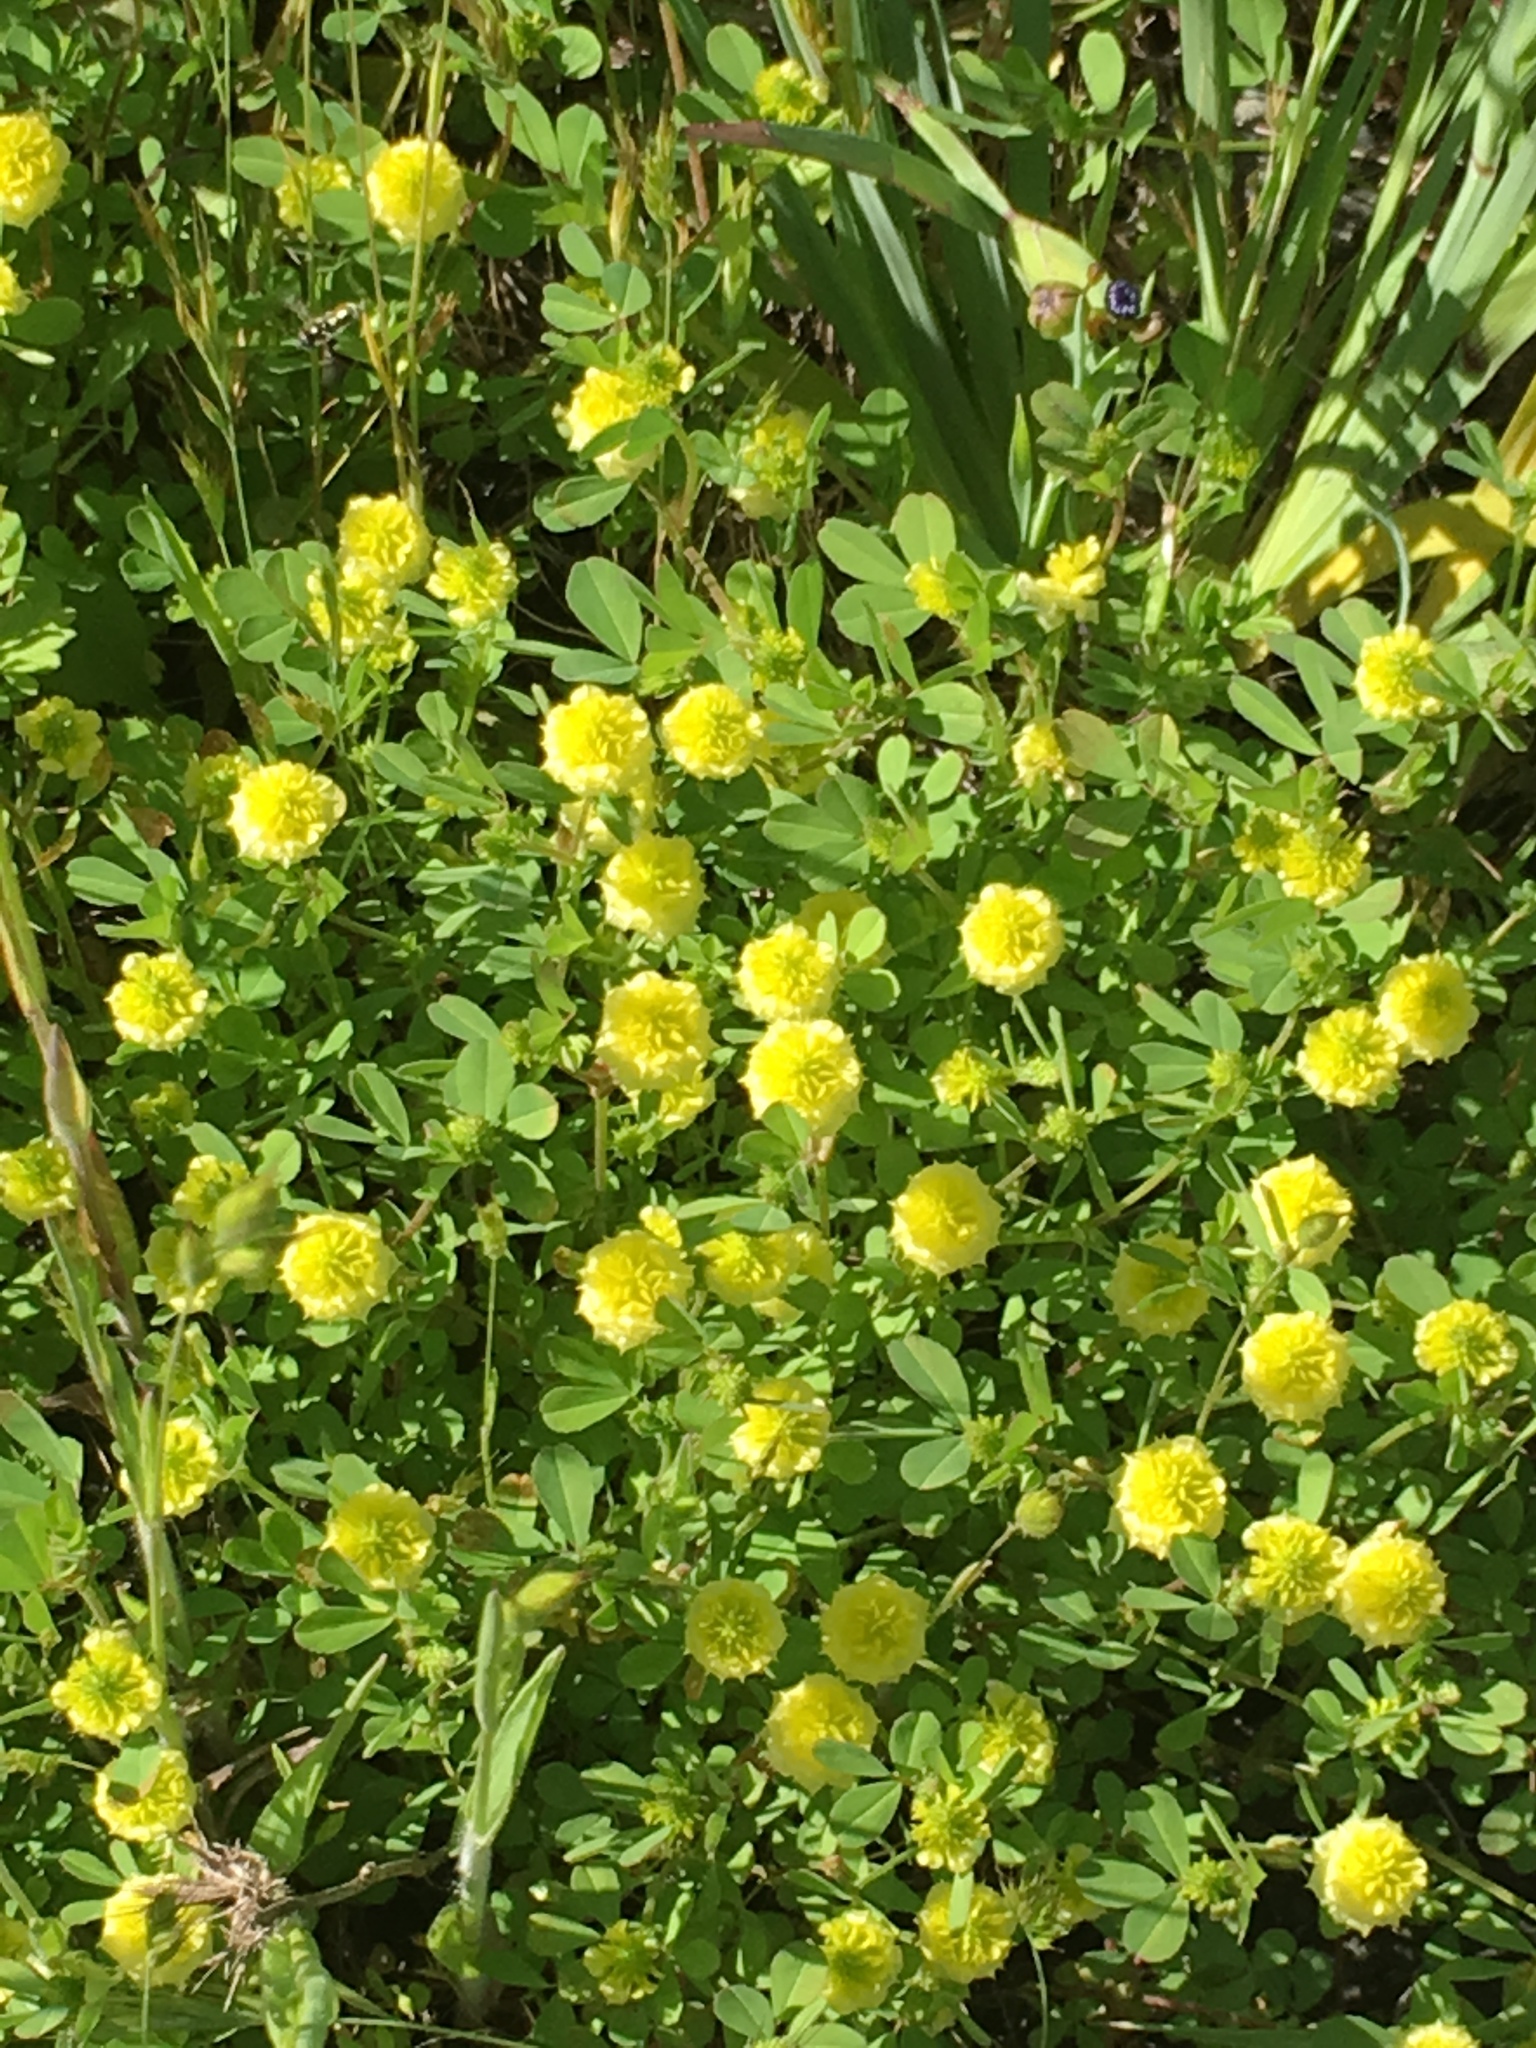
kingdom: Plantae
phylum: Tracheophyta
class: Magnoliopsida
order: Fabales
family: Fabaceae
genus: Trifolium
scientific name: Trifolium campestre
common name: Field clover
